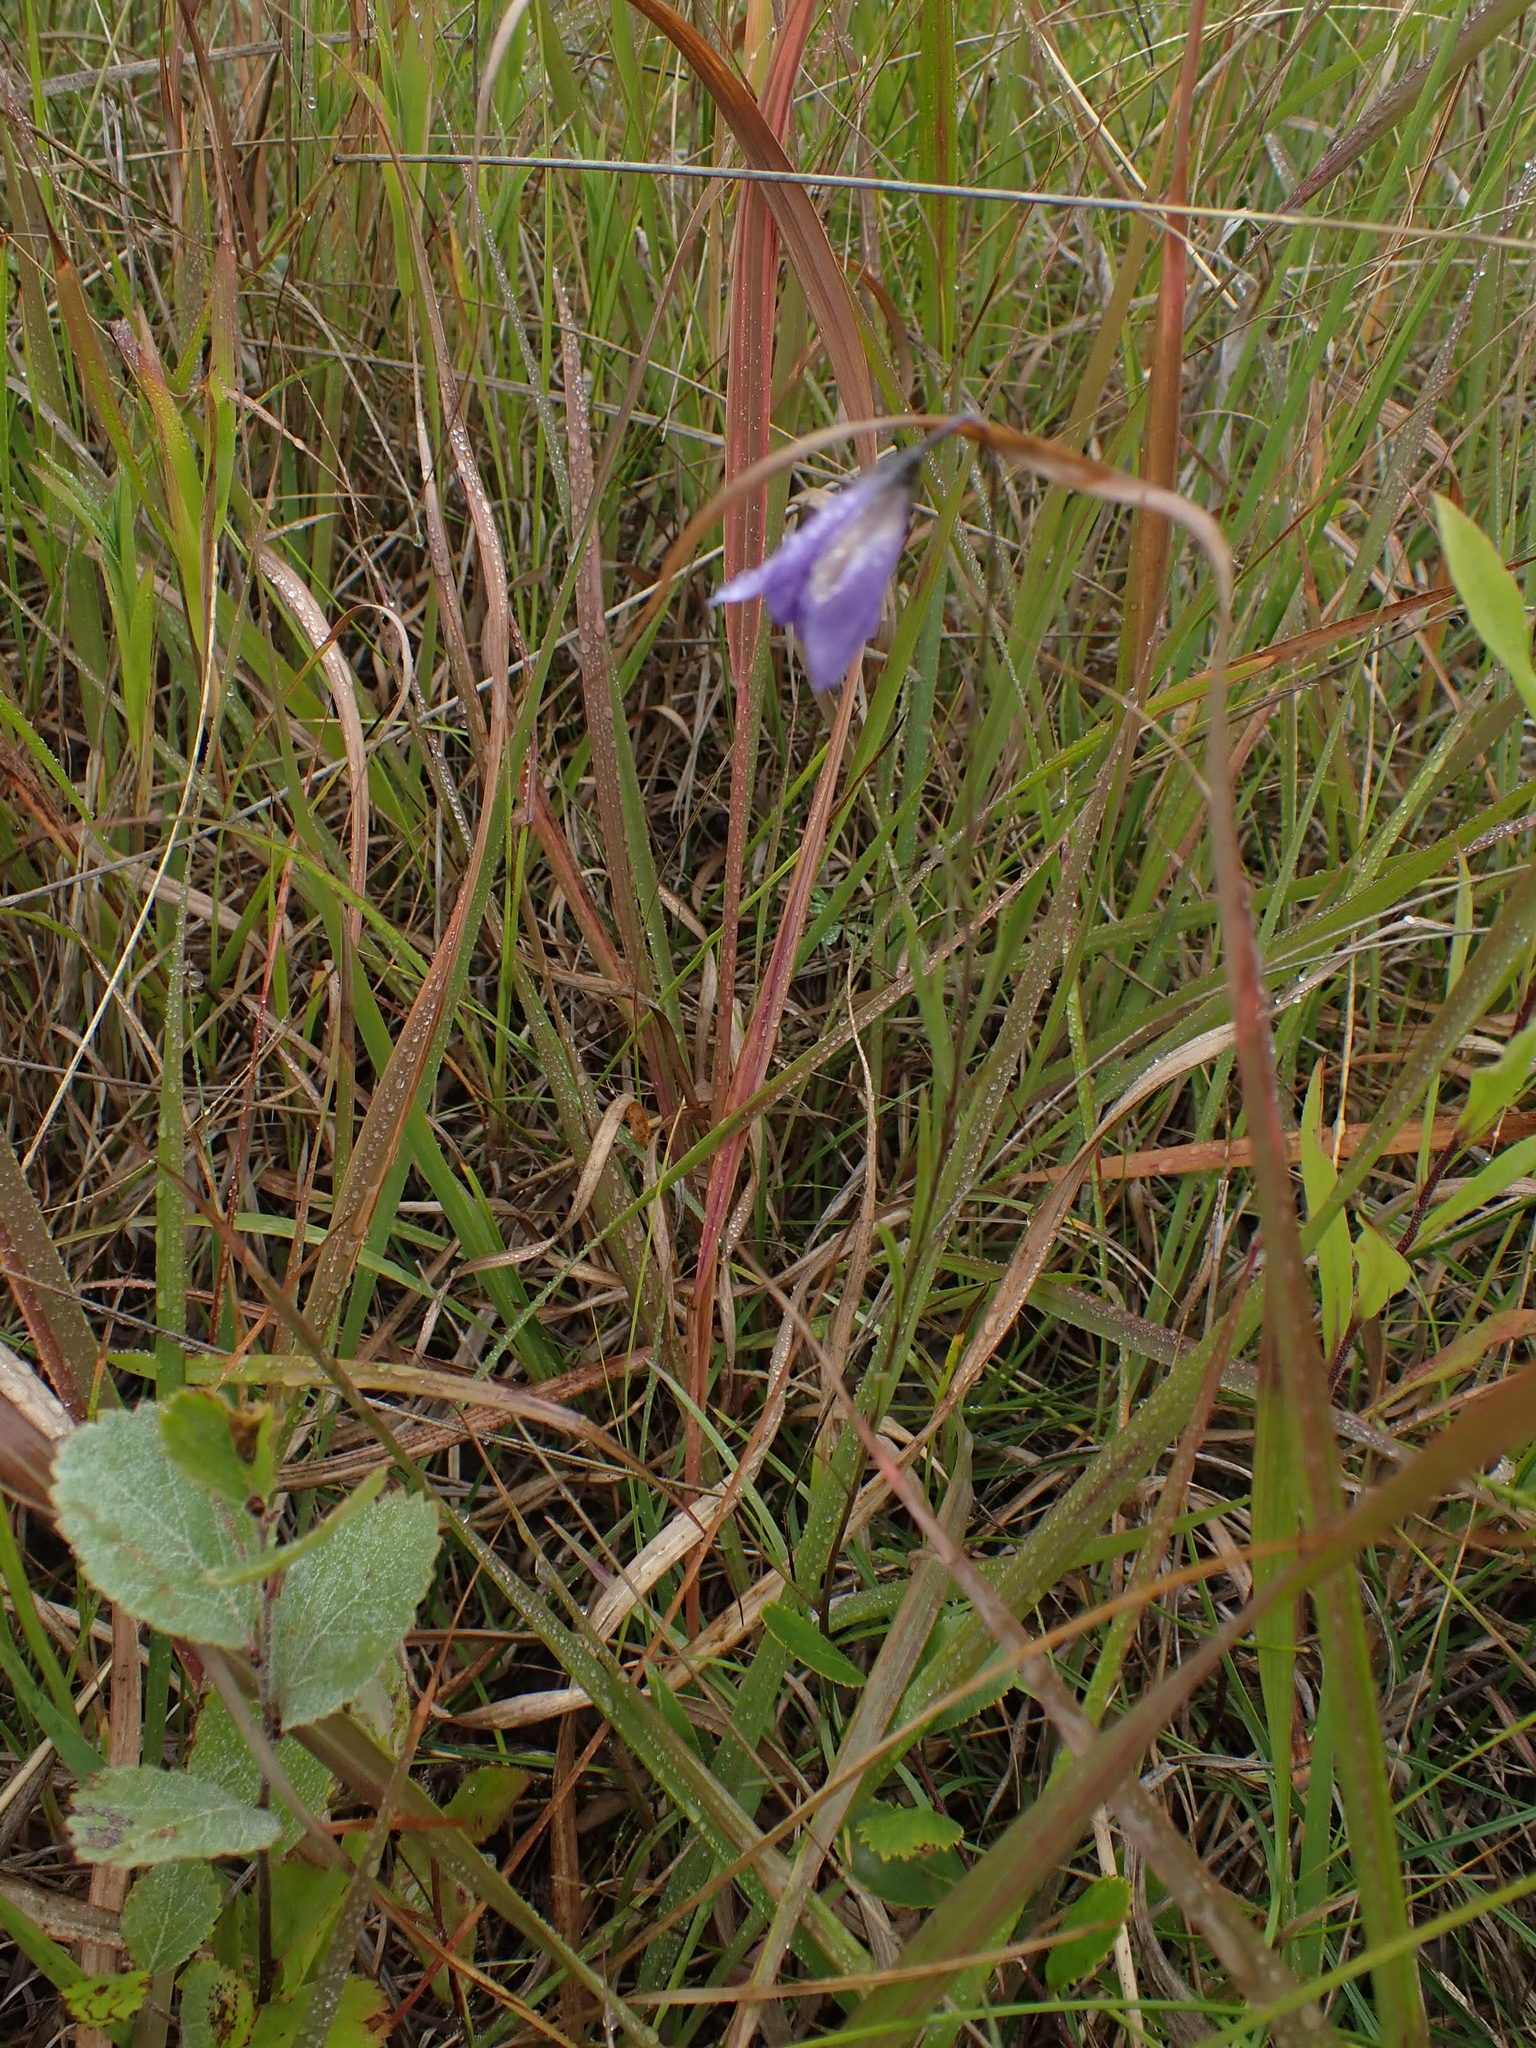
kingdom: Plantae
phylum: Tracheophyta
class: Magnoliopsida
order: Asterales
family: Campanulaceae
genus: Campanula
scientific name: Campanula petiolata
